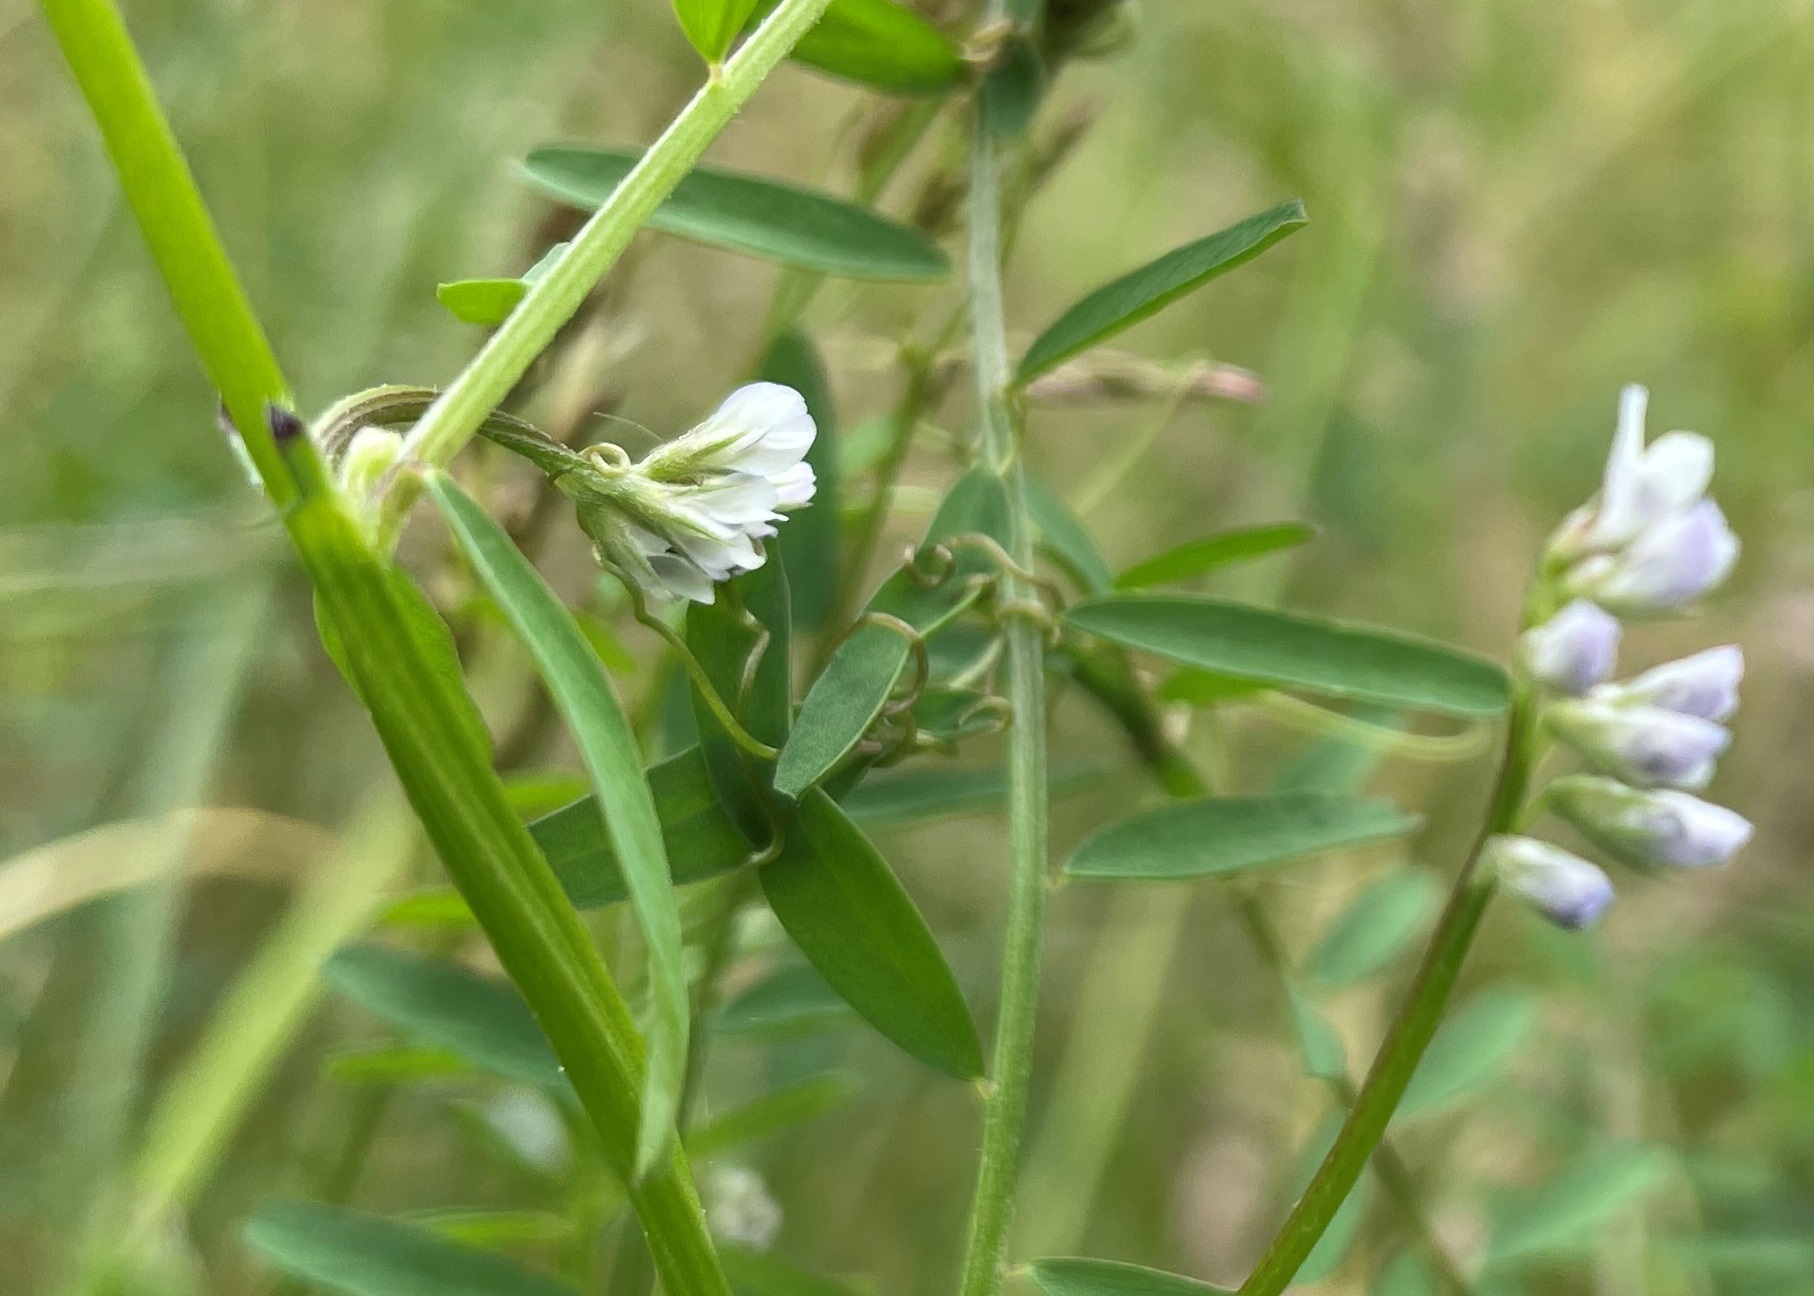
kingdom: Plantae
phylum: Tracheophyta
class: Magnoliopsida
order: Fabales
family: Fabaceae
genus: Vicia
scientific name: Vicia hirsuta
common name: Tiny vetch
